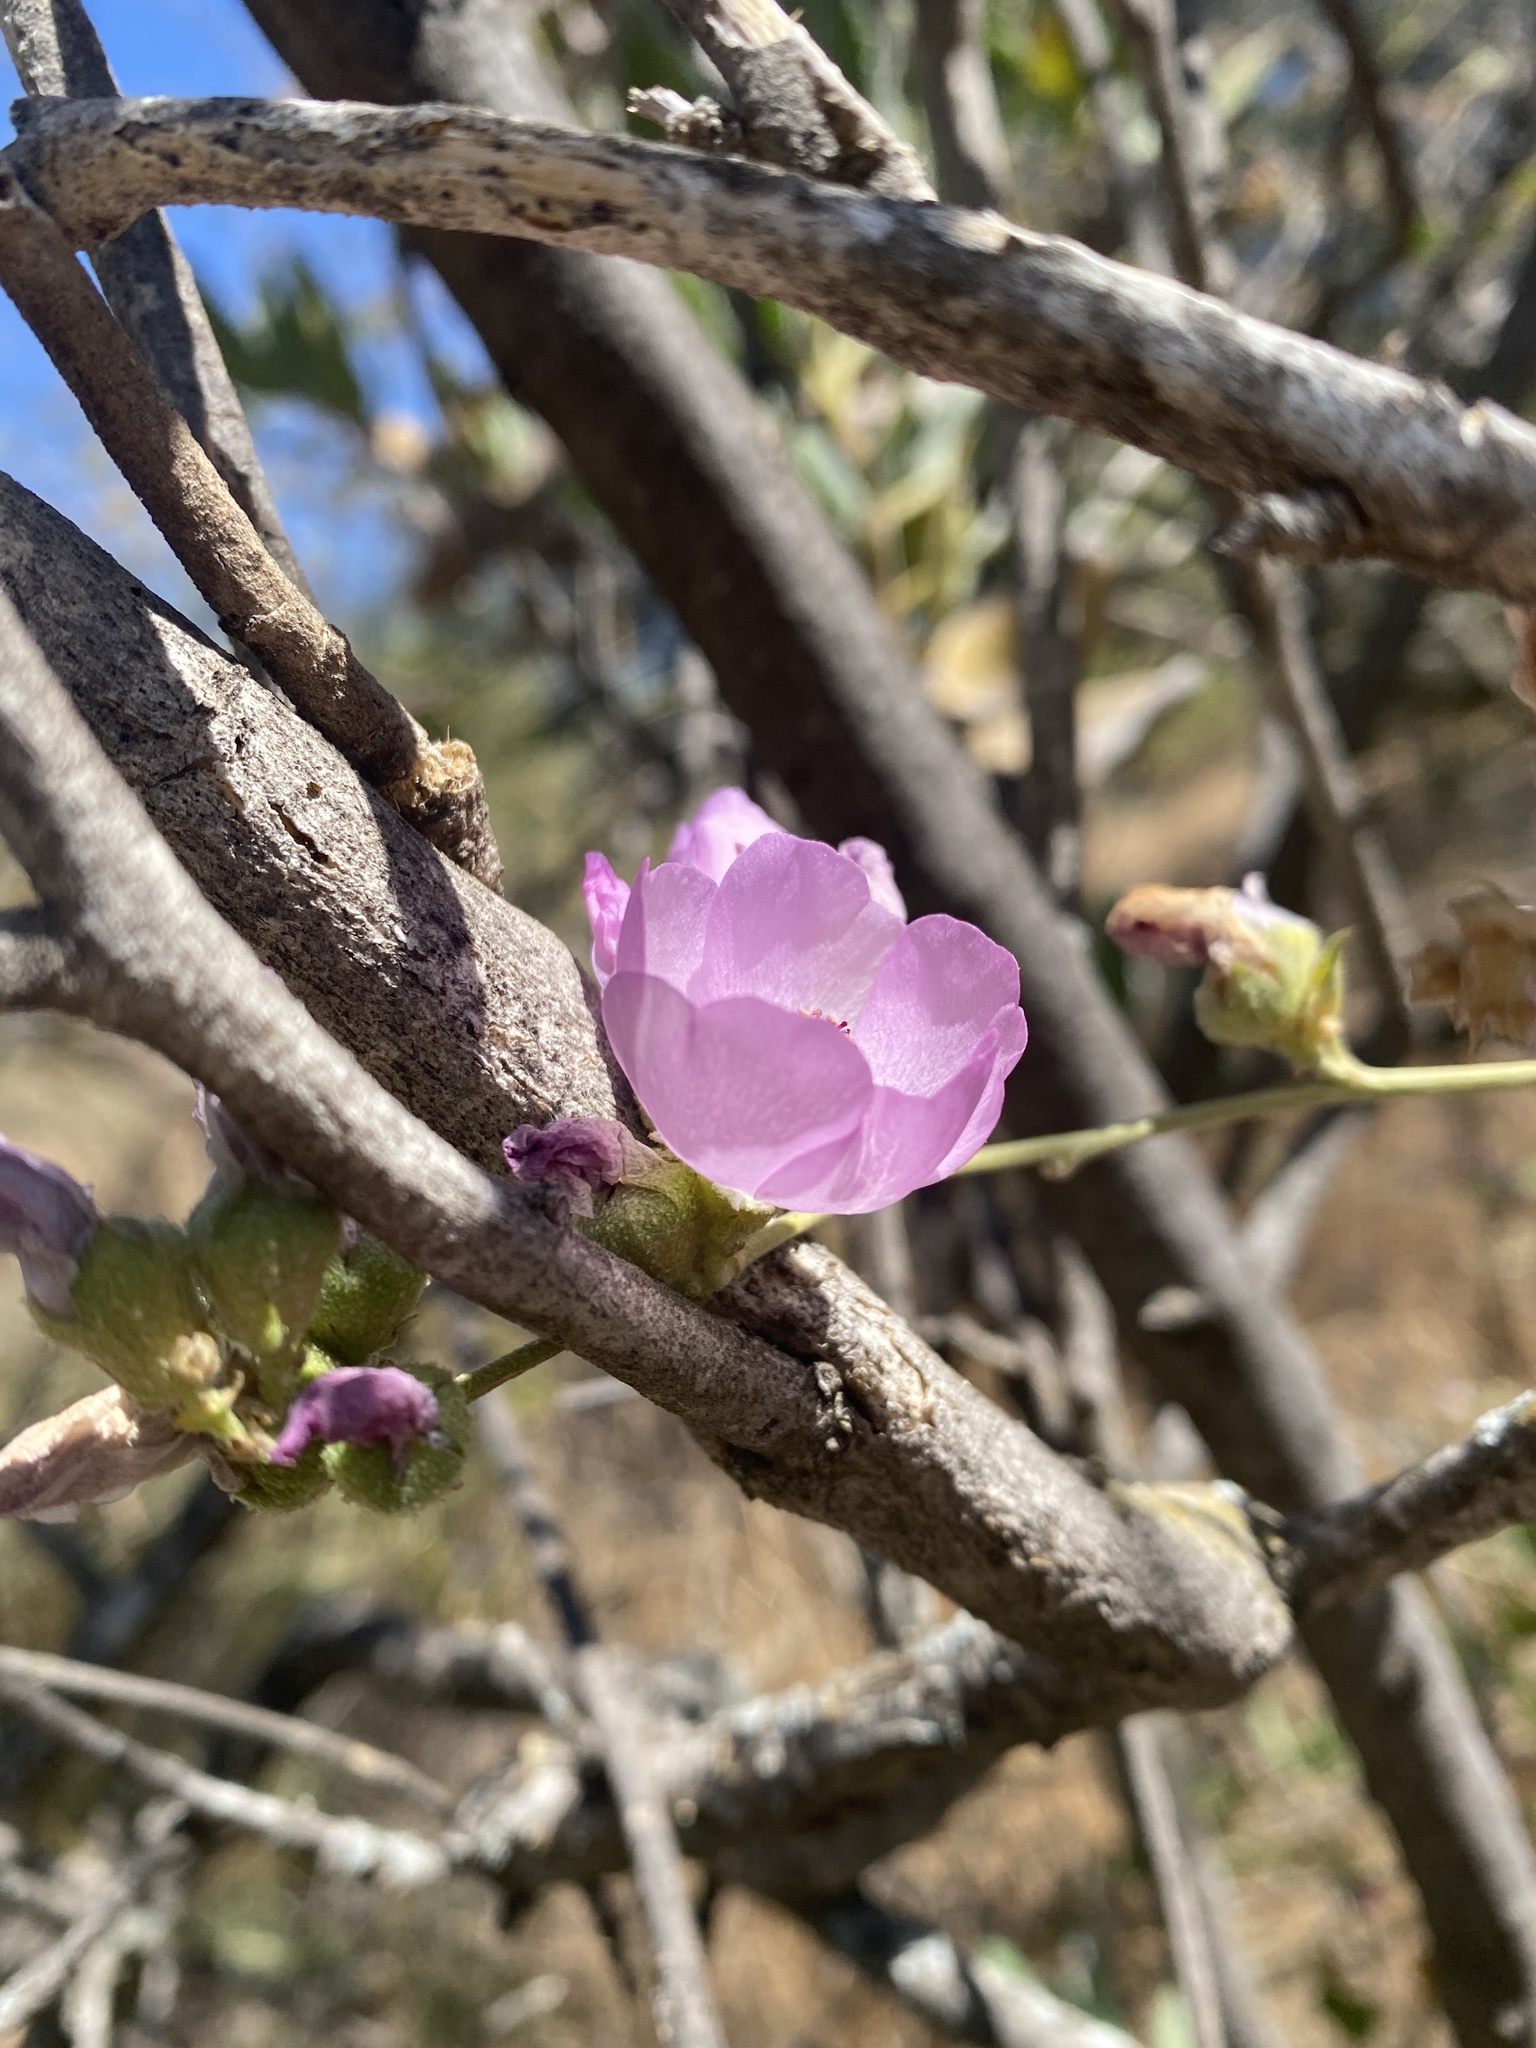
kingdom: Plantae
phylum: Tracheophyta
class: Magnoliopsida
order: Malvales
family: Malvaceae
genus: Malacothamnus
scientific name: Malacothamnus fasciculatus
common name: Sant cruz island bush-mallow
